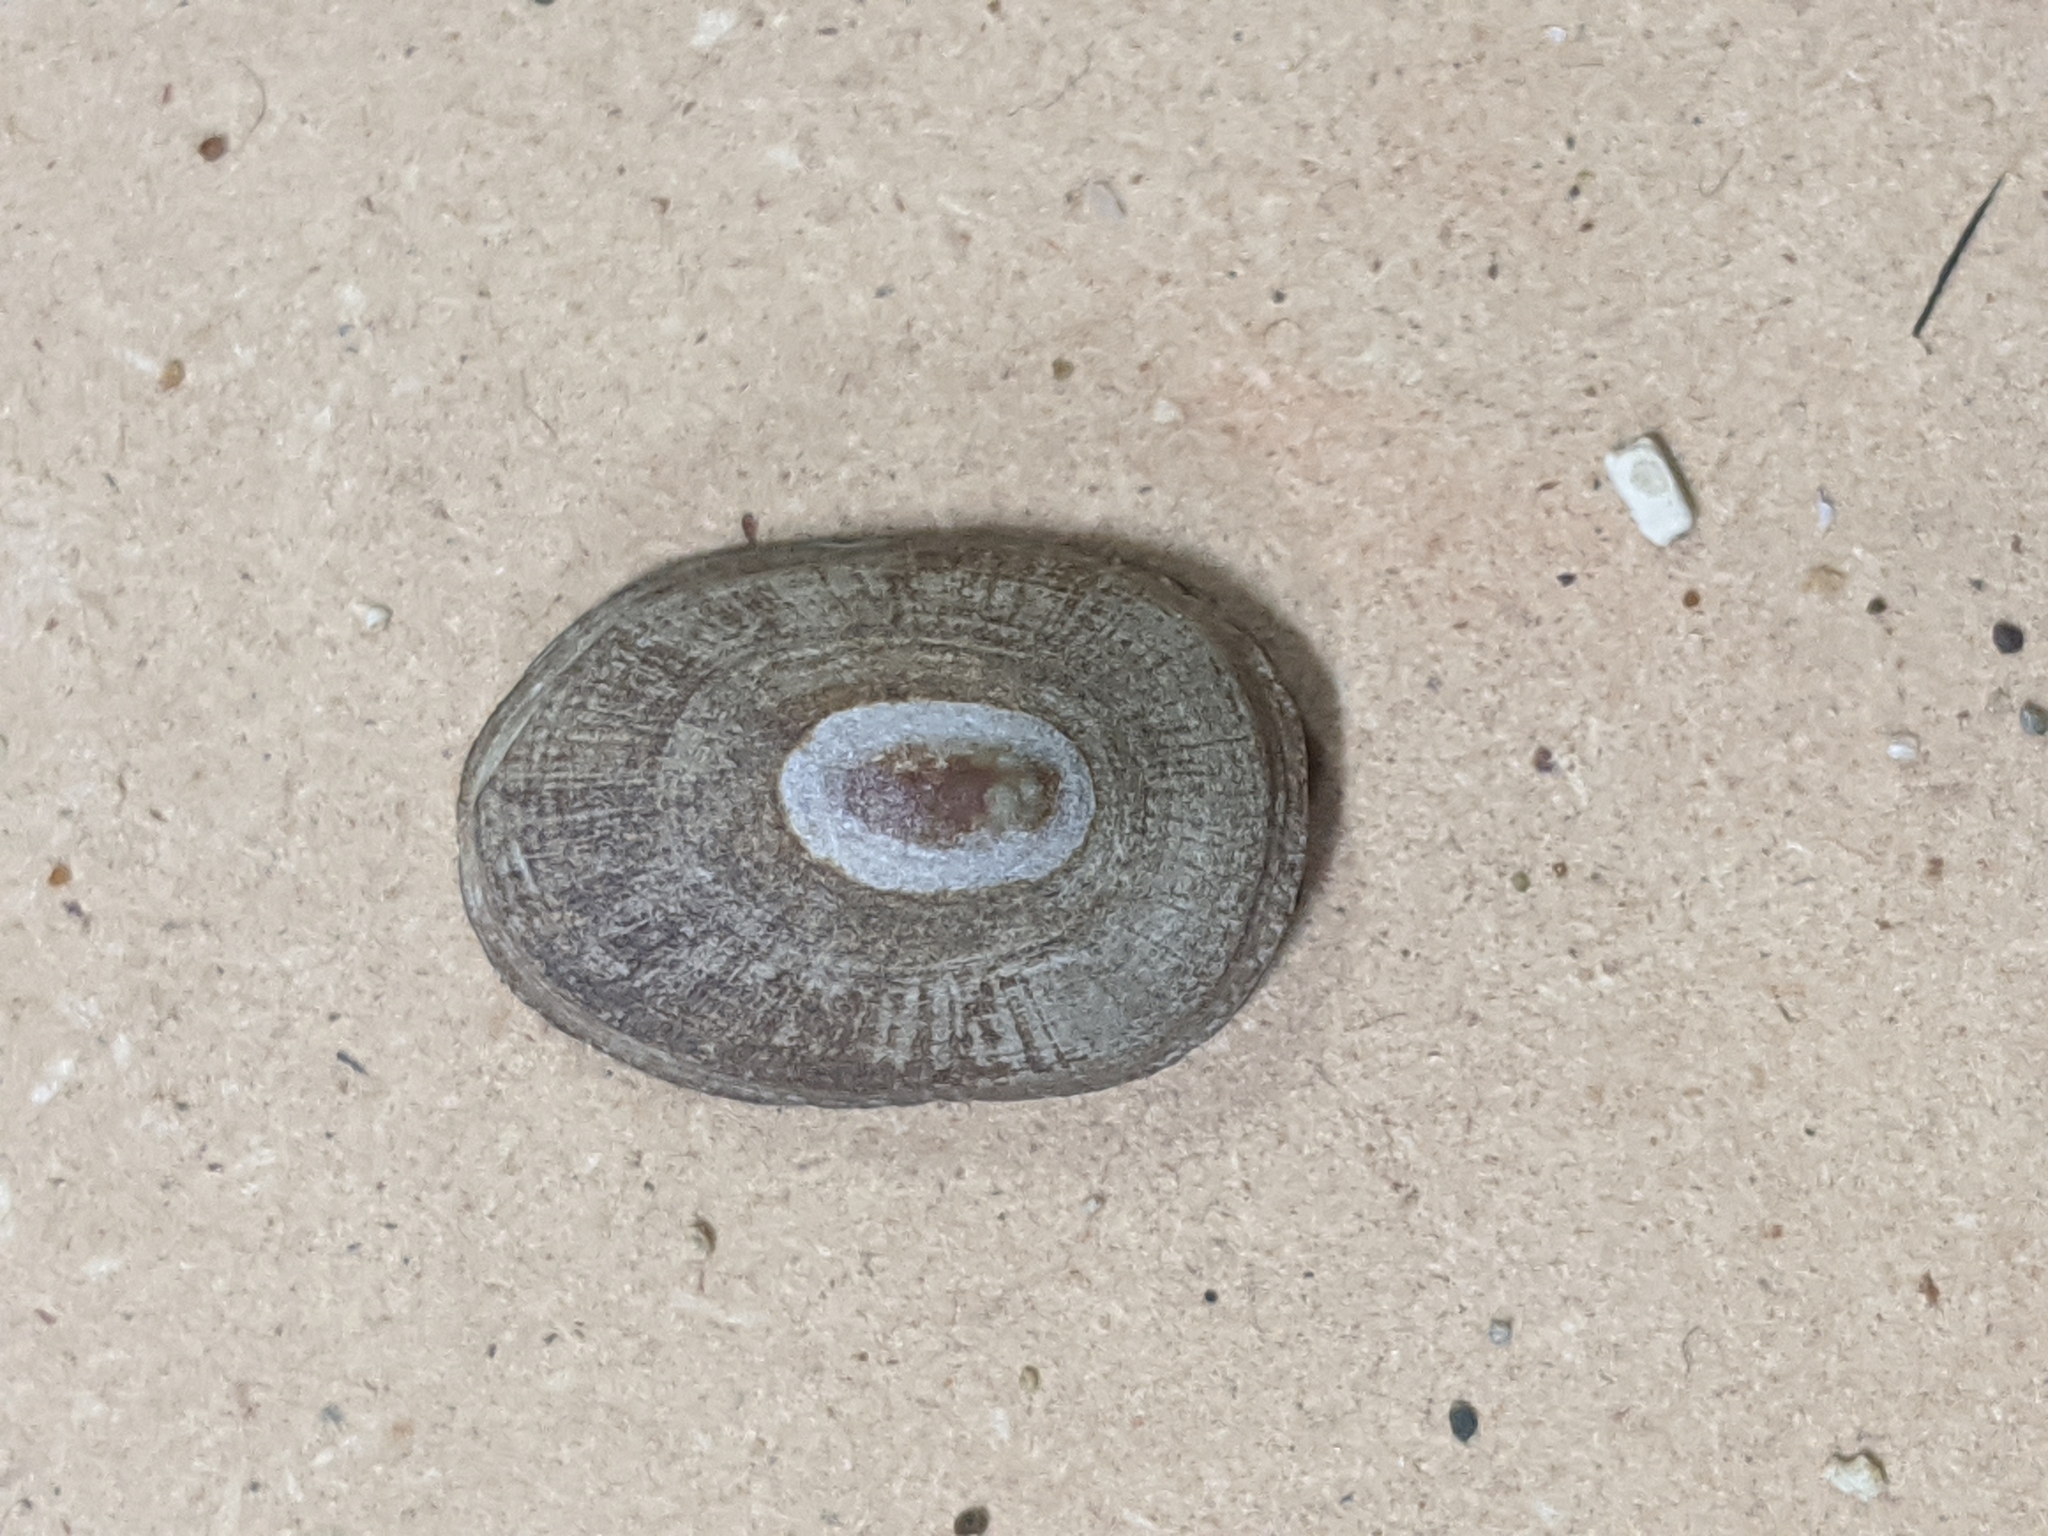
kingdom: Animalia
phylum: Mollusca
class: Gastropoda
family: Lottiidae
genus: Lottia
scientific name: Lottia instabilis
